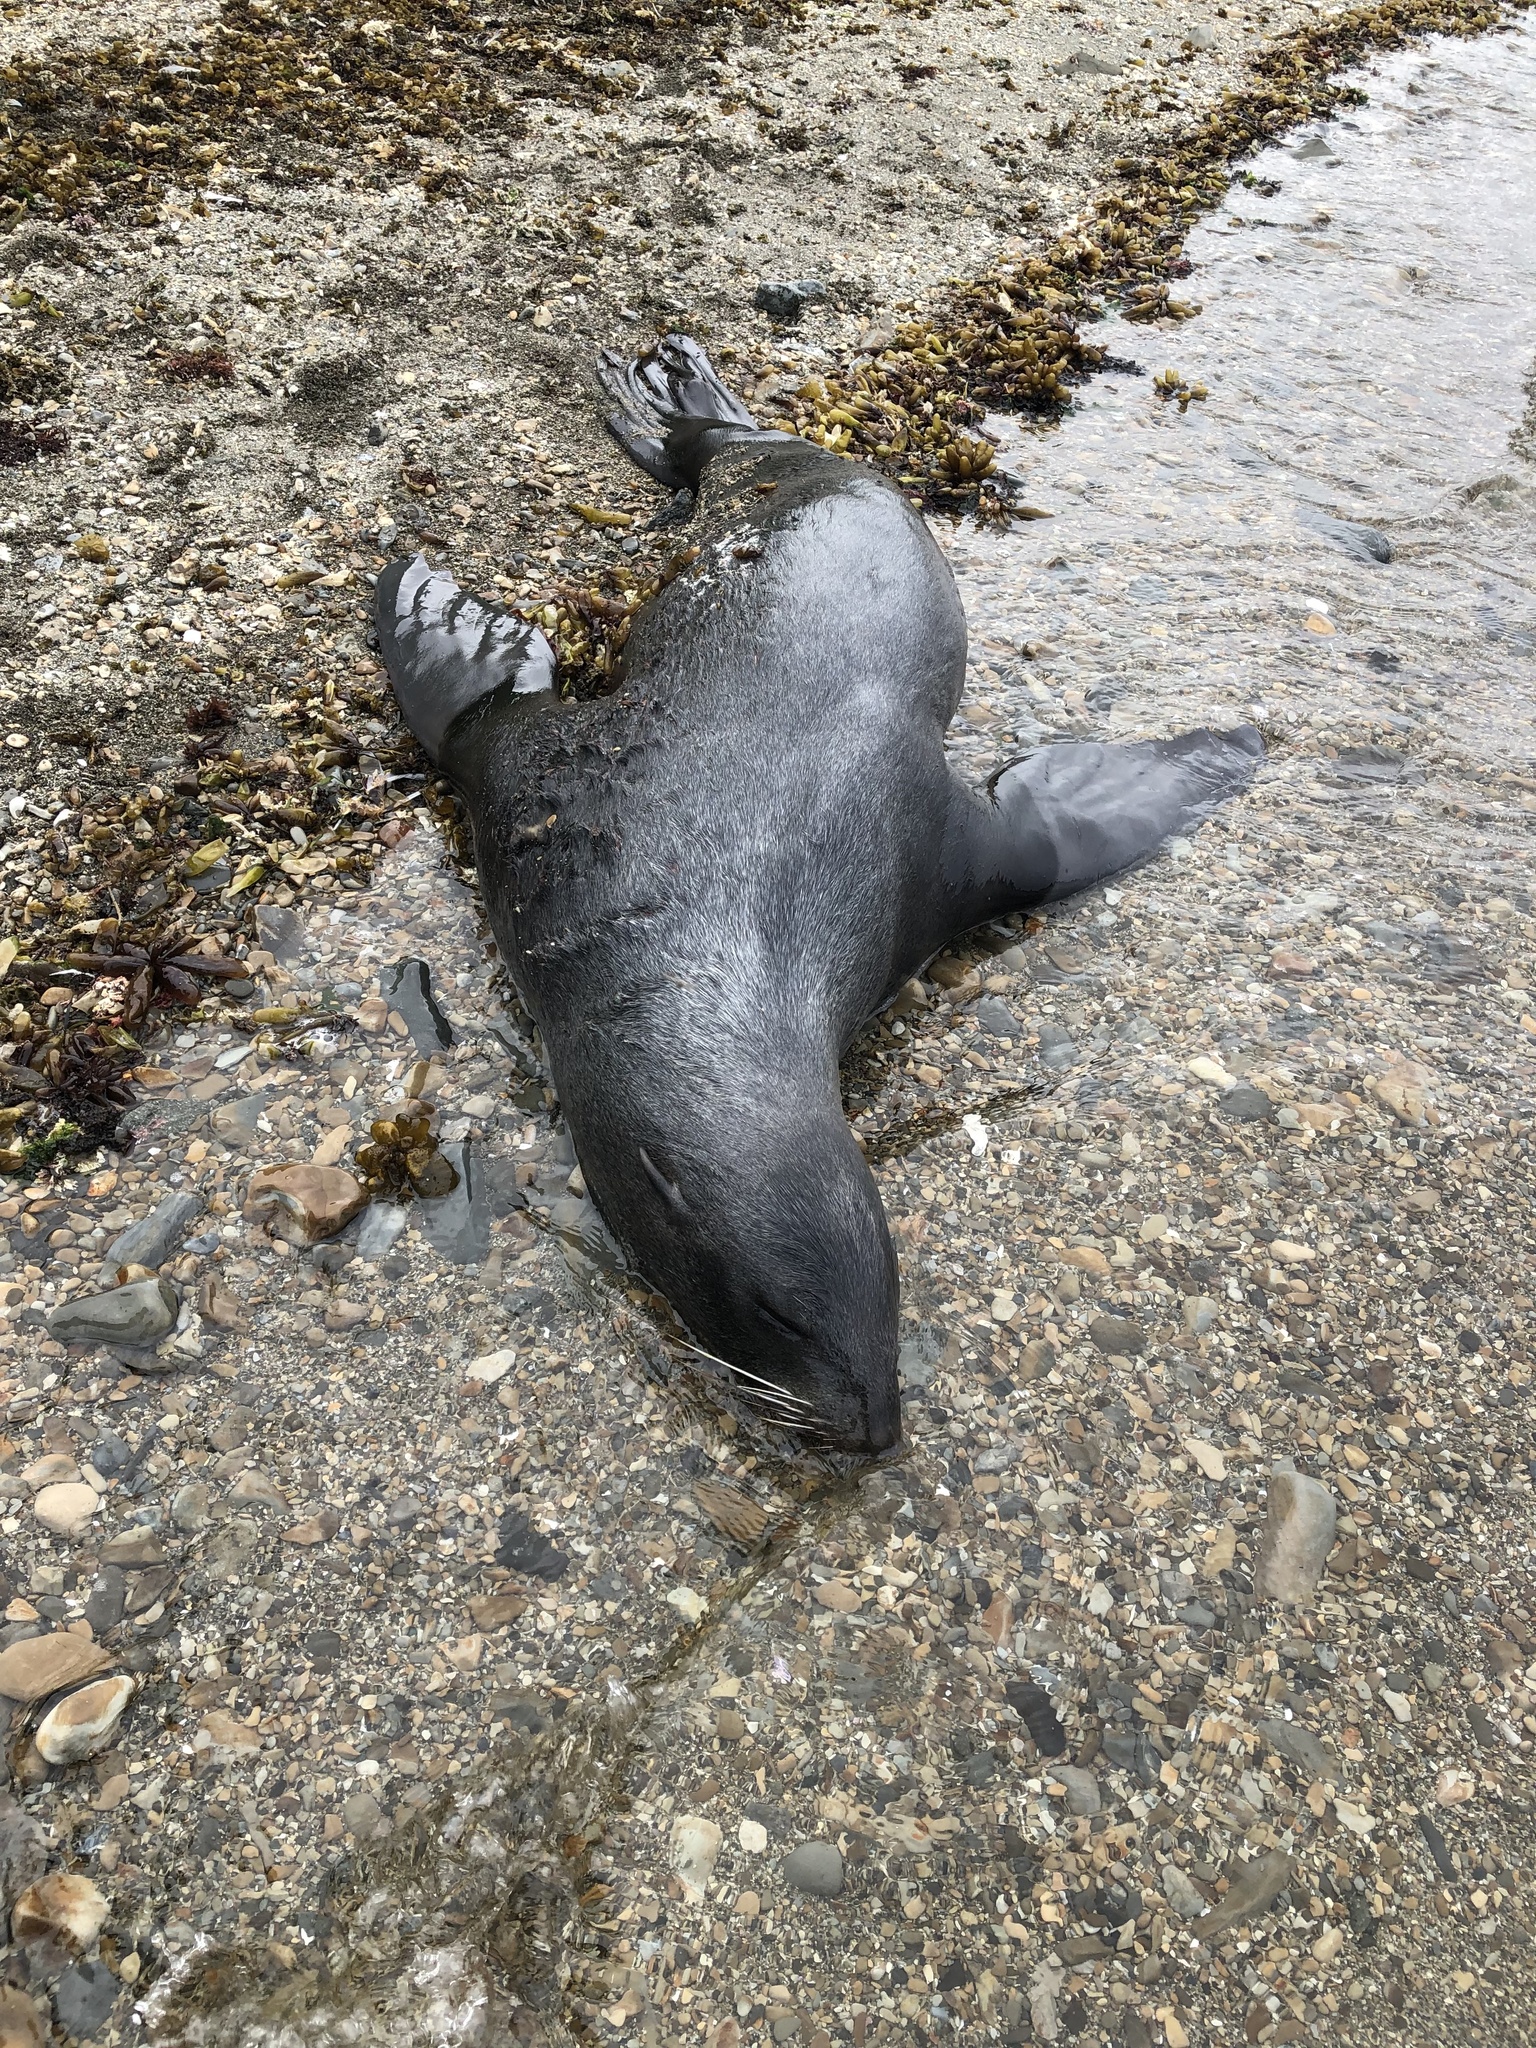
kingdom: Animalia
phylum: Chordata
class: Mammalia
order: Carnivora
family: Otariidae
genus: Callorhinus
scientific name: Callorhinus ursinus
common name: Northern fur seal
